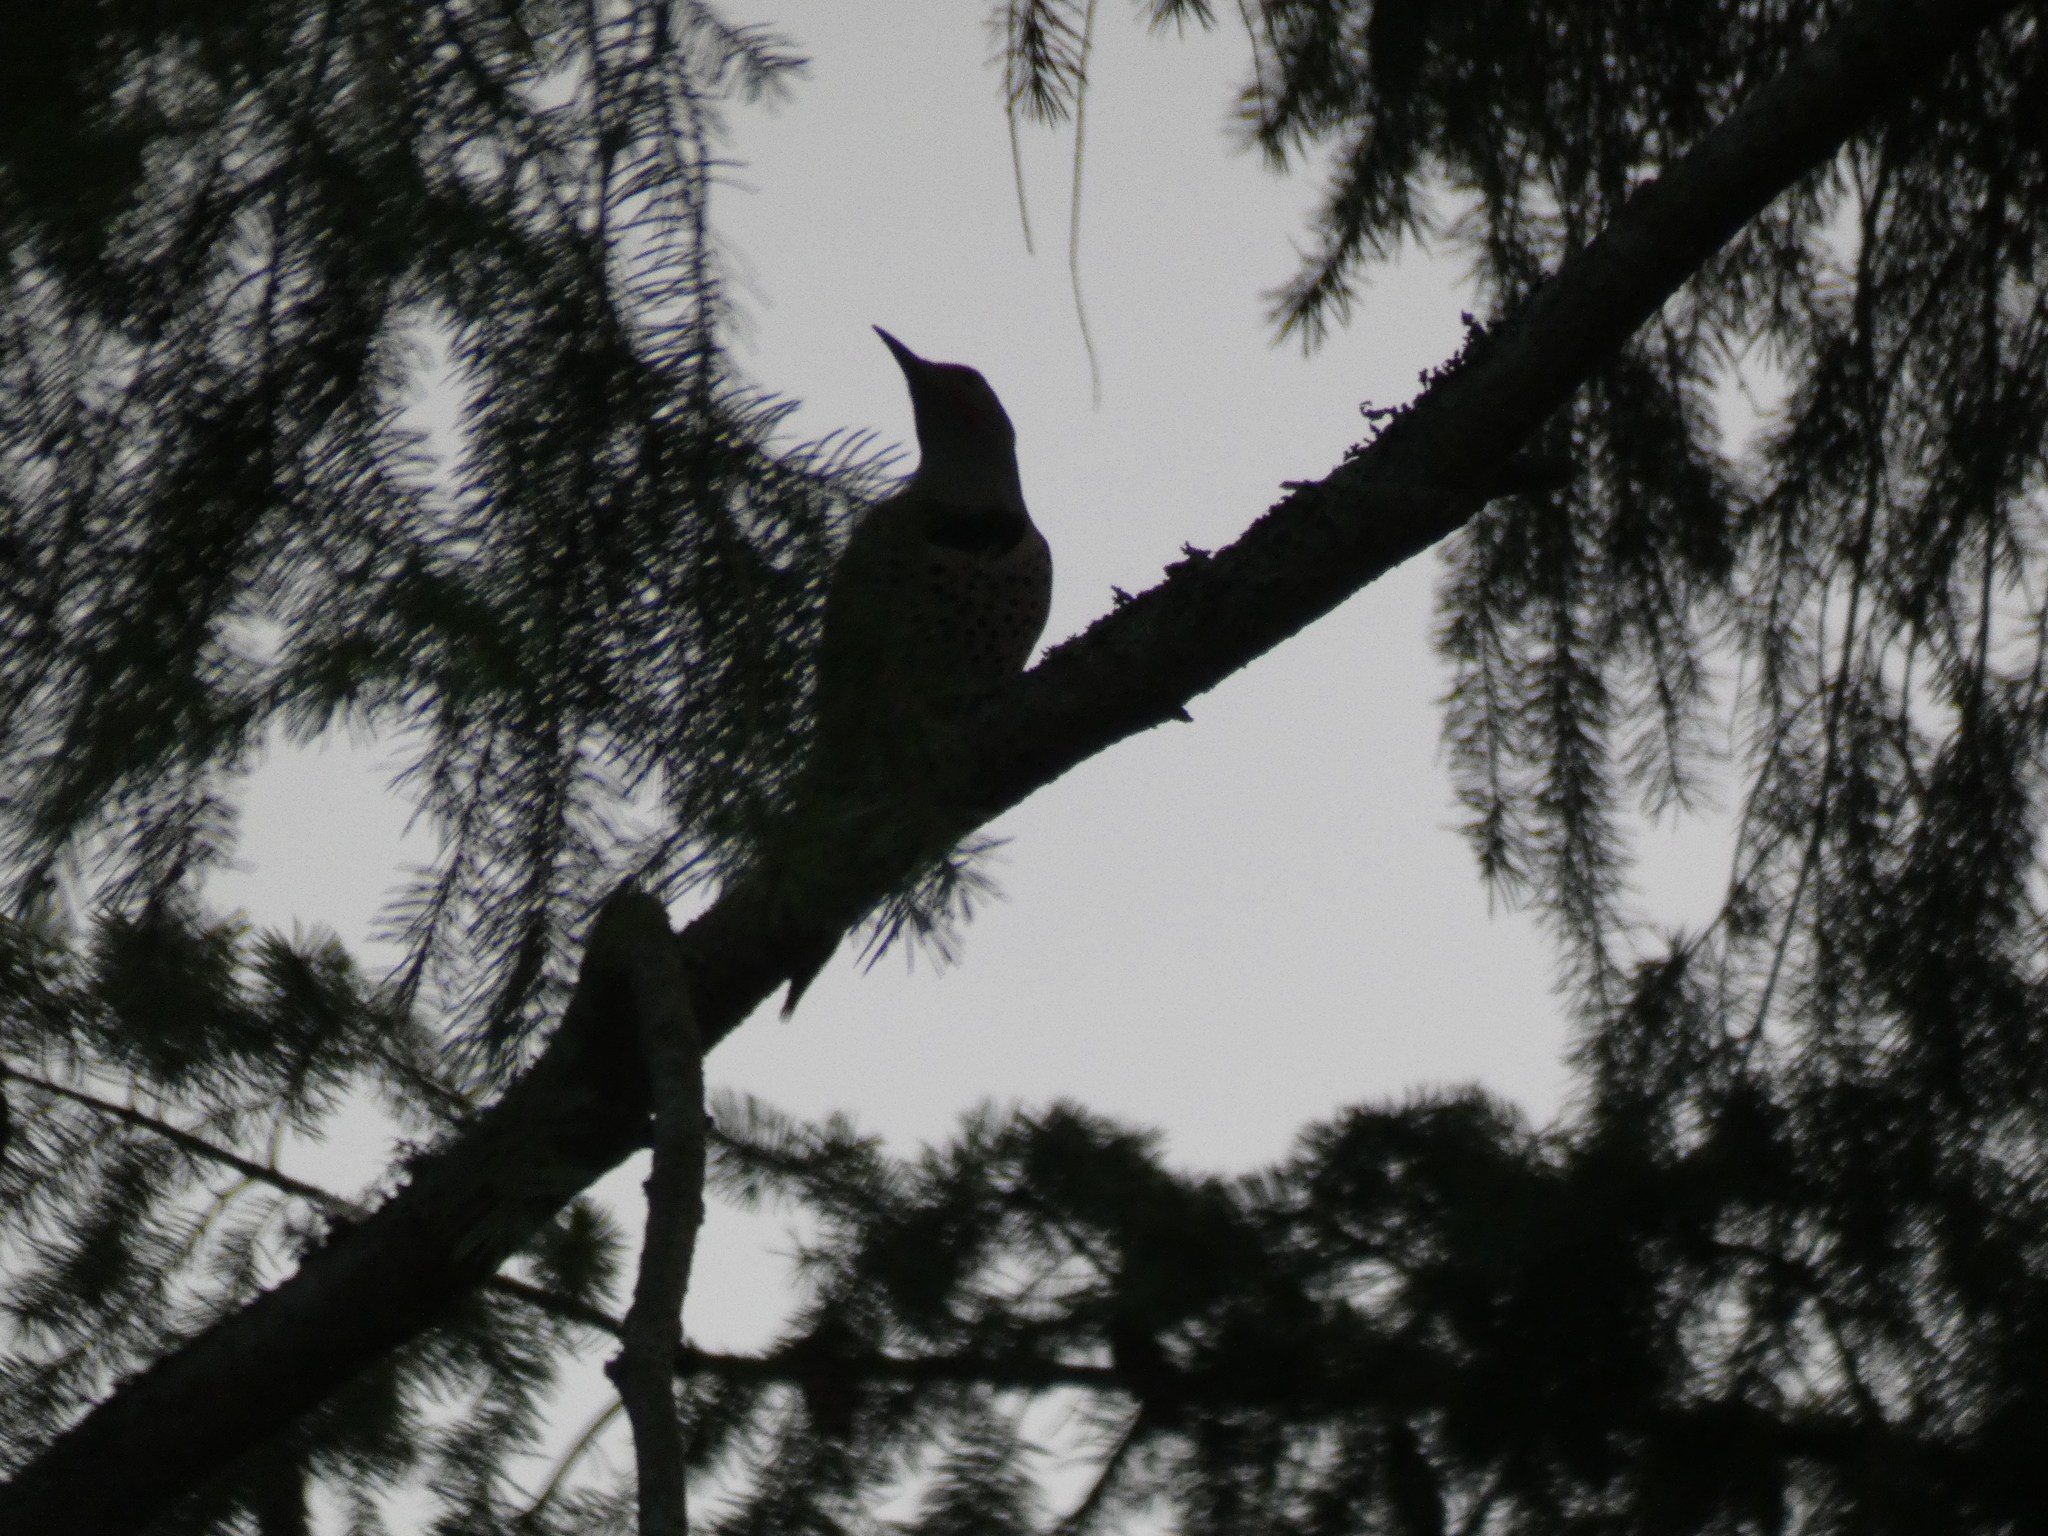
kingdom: Animalia
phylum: Chordata
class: Aves
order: Piciformes
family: Picidae
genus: Colaptes
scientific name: Colaptes auratus
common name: Northern flicker
